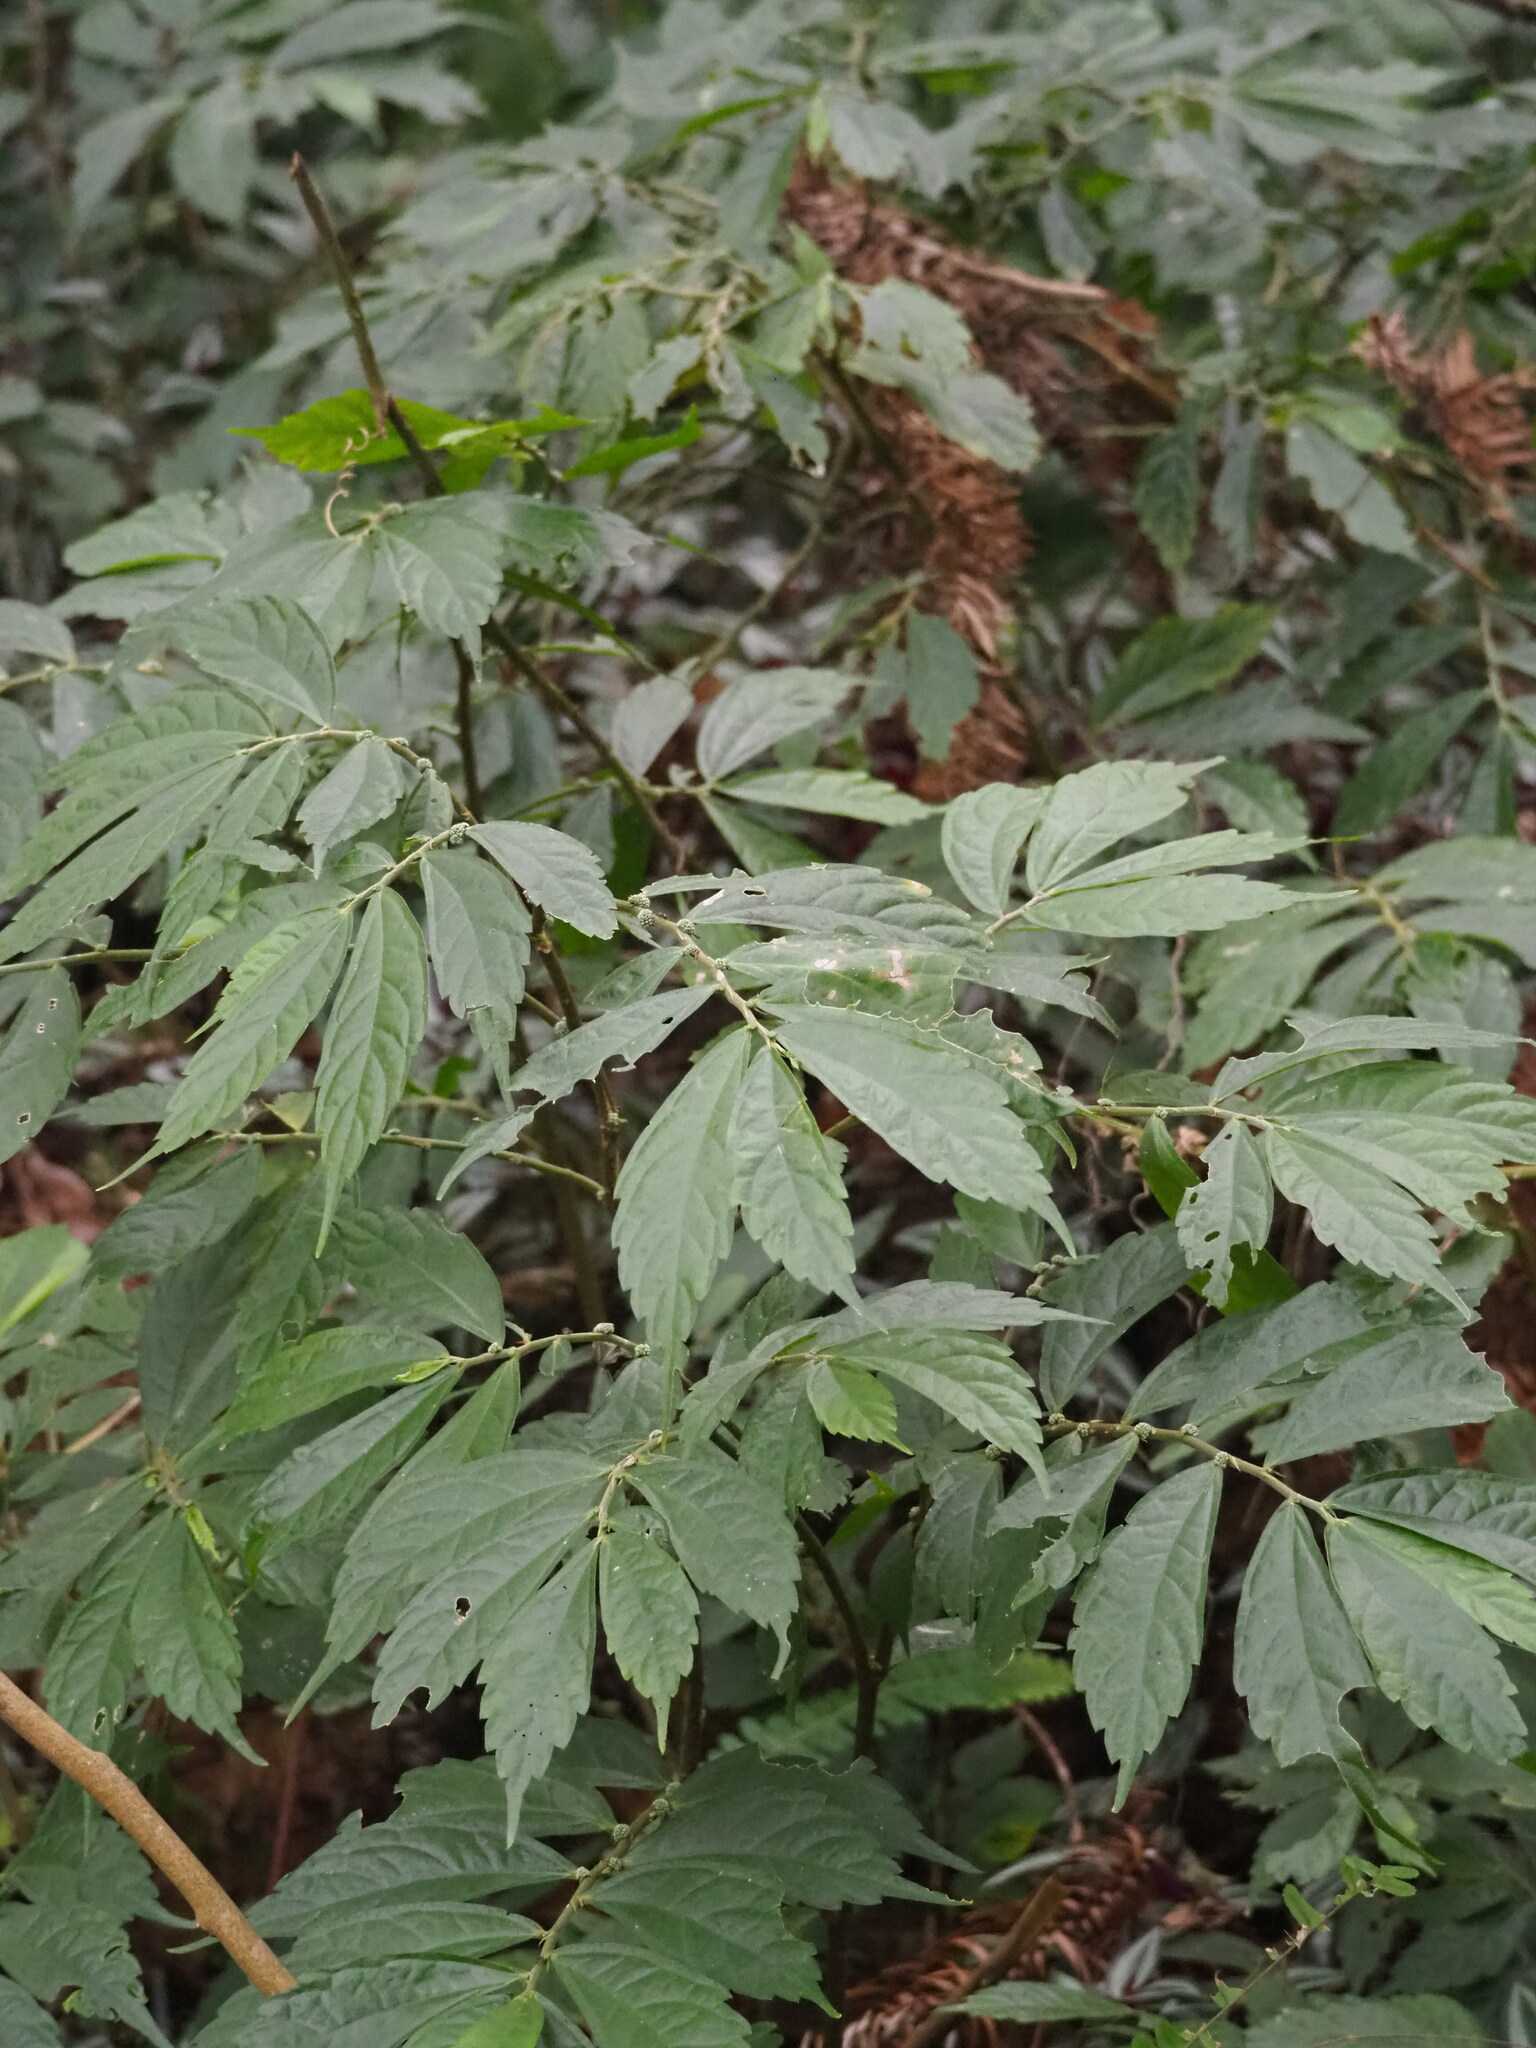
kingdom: Plantae
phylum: Tracheophyta
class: Magnoliopsida
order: Rosales
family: Urticaceae
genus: Elatostema
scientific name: Elatostema lineolatum
